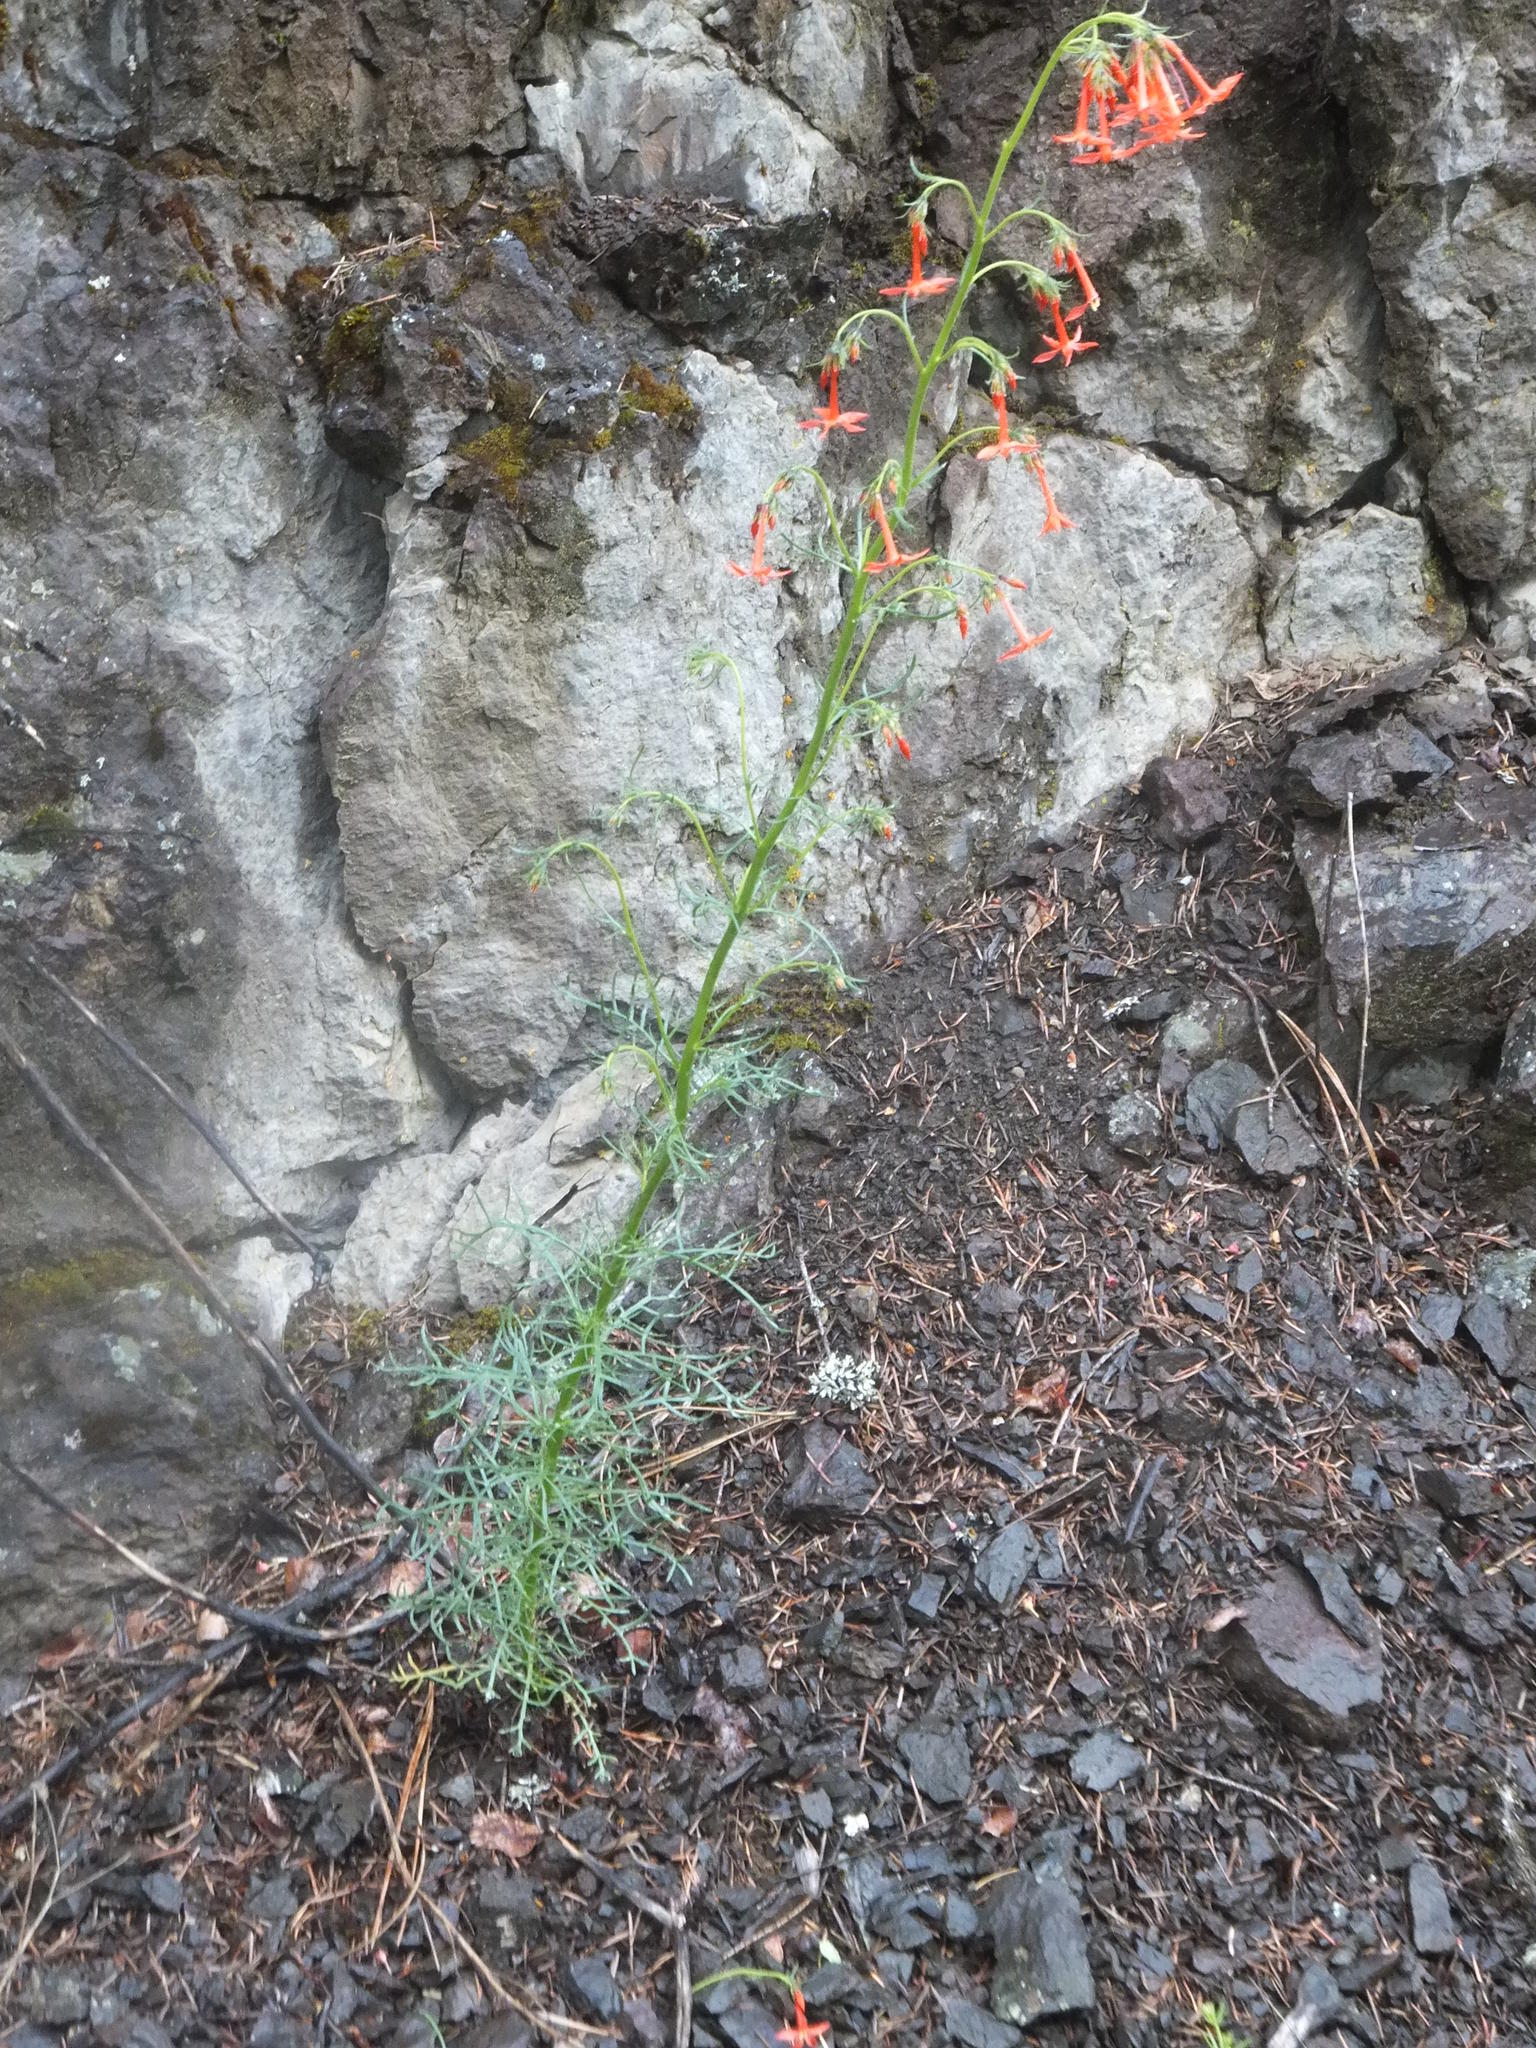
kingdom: Plantae
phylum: Tracheophyta
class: Magnoliopsida
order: Ericales
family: Polemoniaceae
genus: Ipomopsis
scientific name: Ipomopsis aggregata
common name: Scarlet gilia
